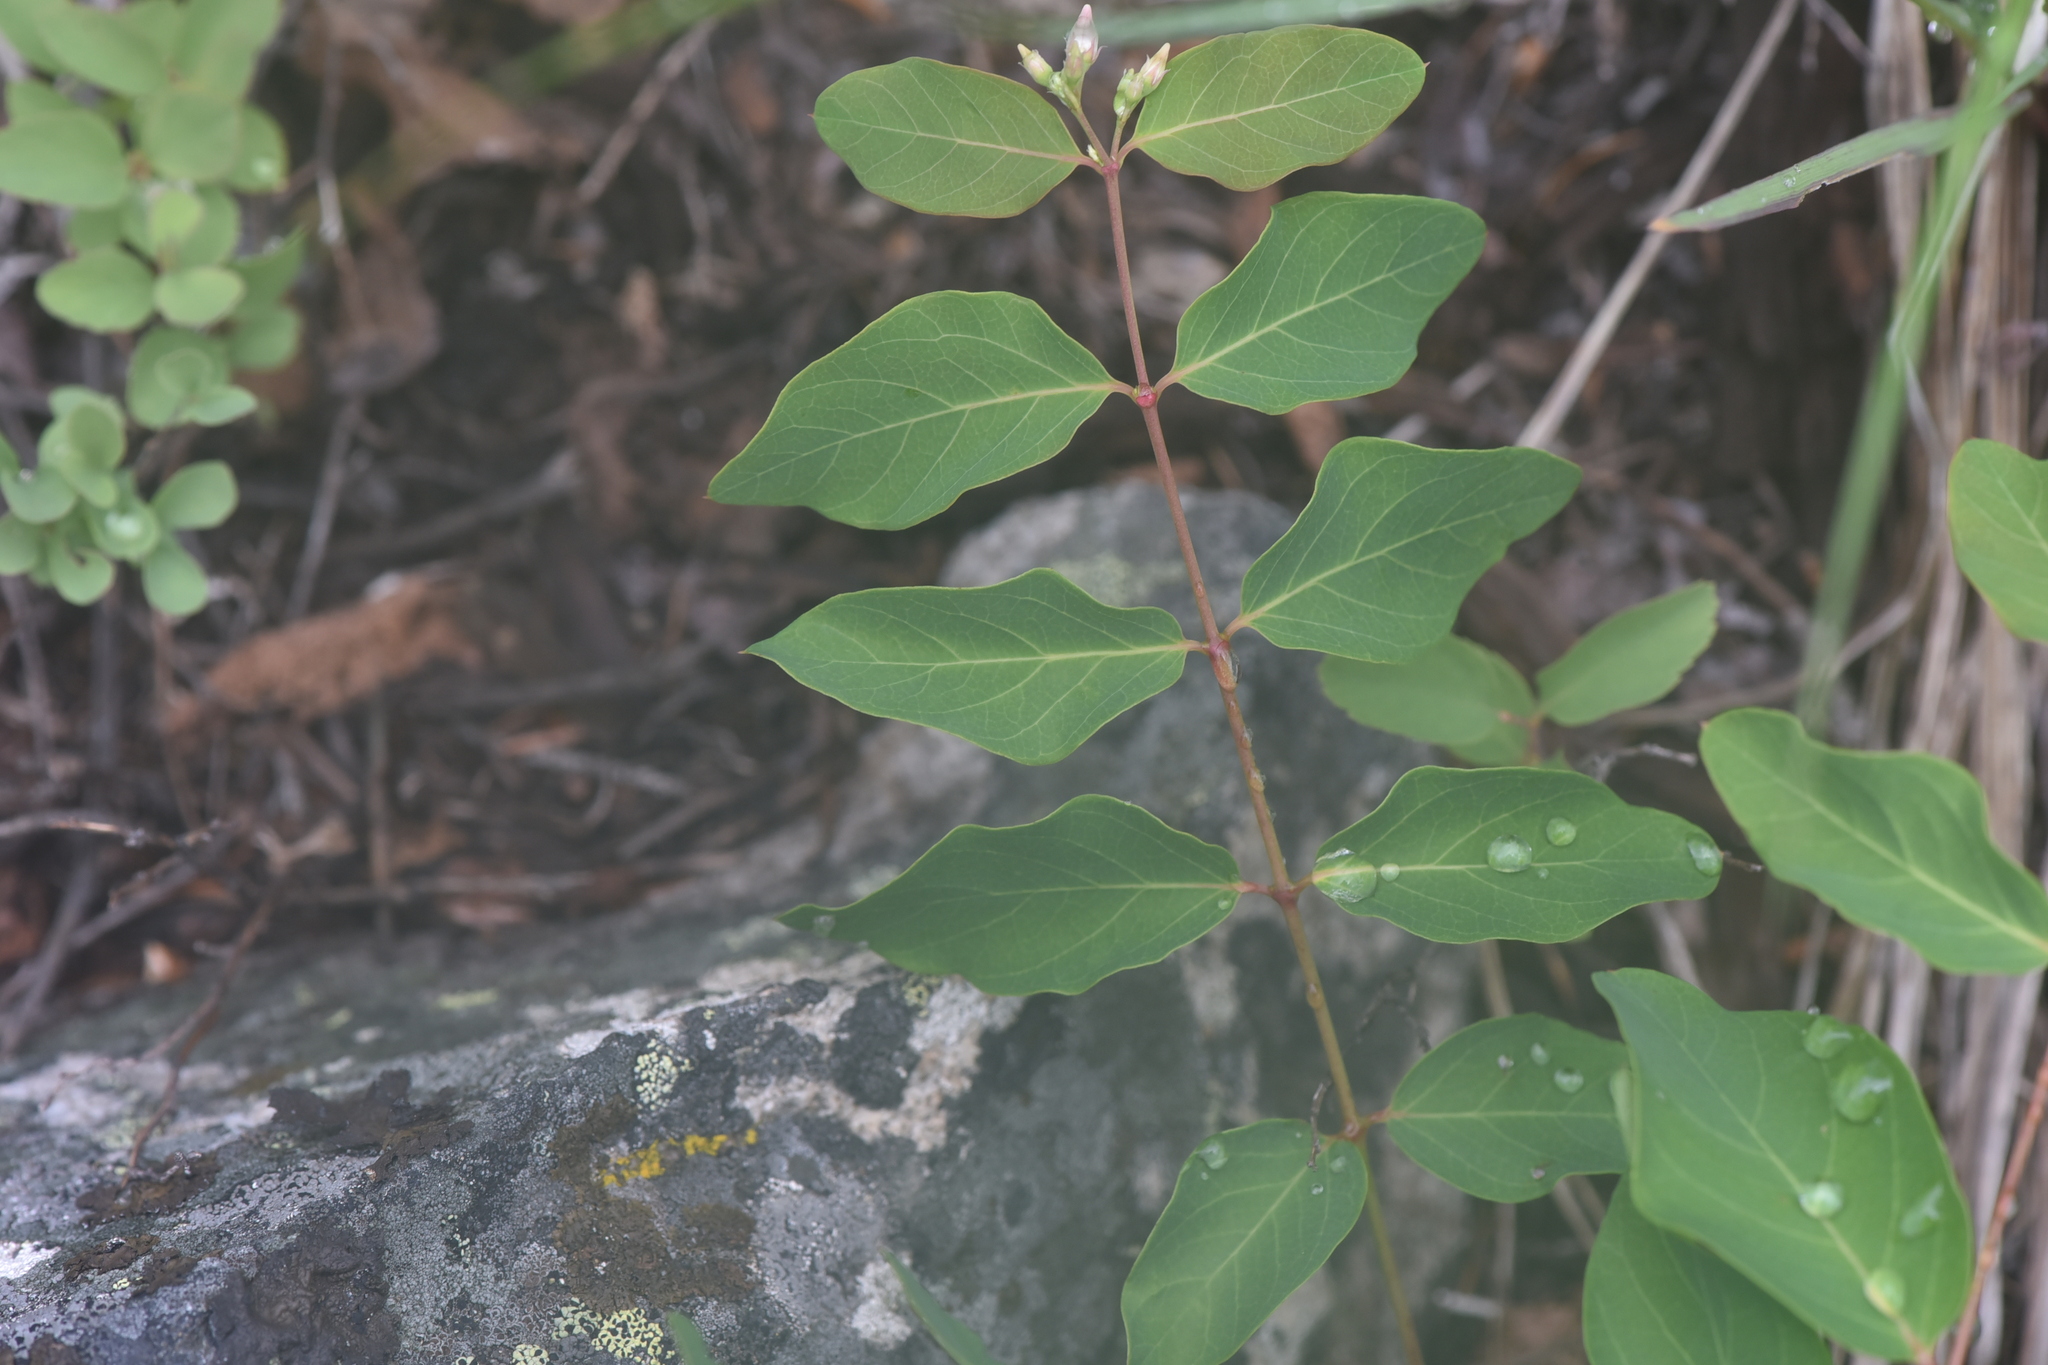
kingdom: Plantae
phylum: Tracheophyta
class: Magnoliopsida
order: Gentianales
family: Apocynaceae
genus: Apocynum
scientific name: Apocynum androsaemifolium
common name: Spreading dogbane
